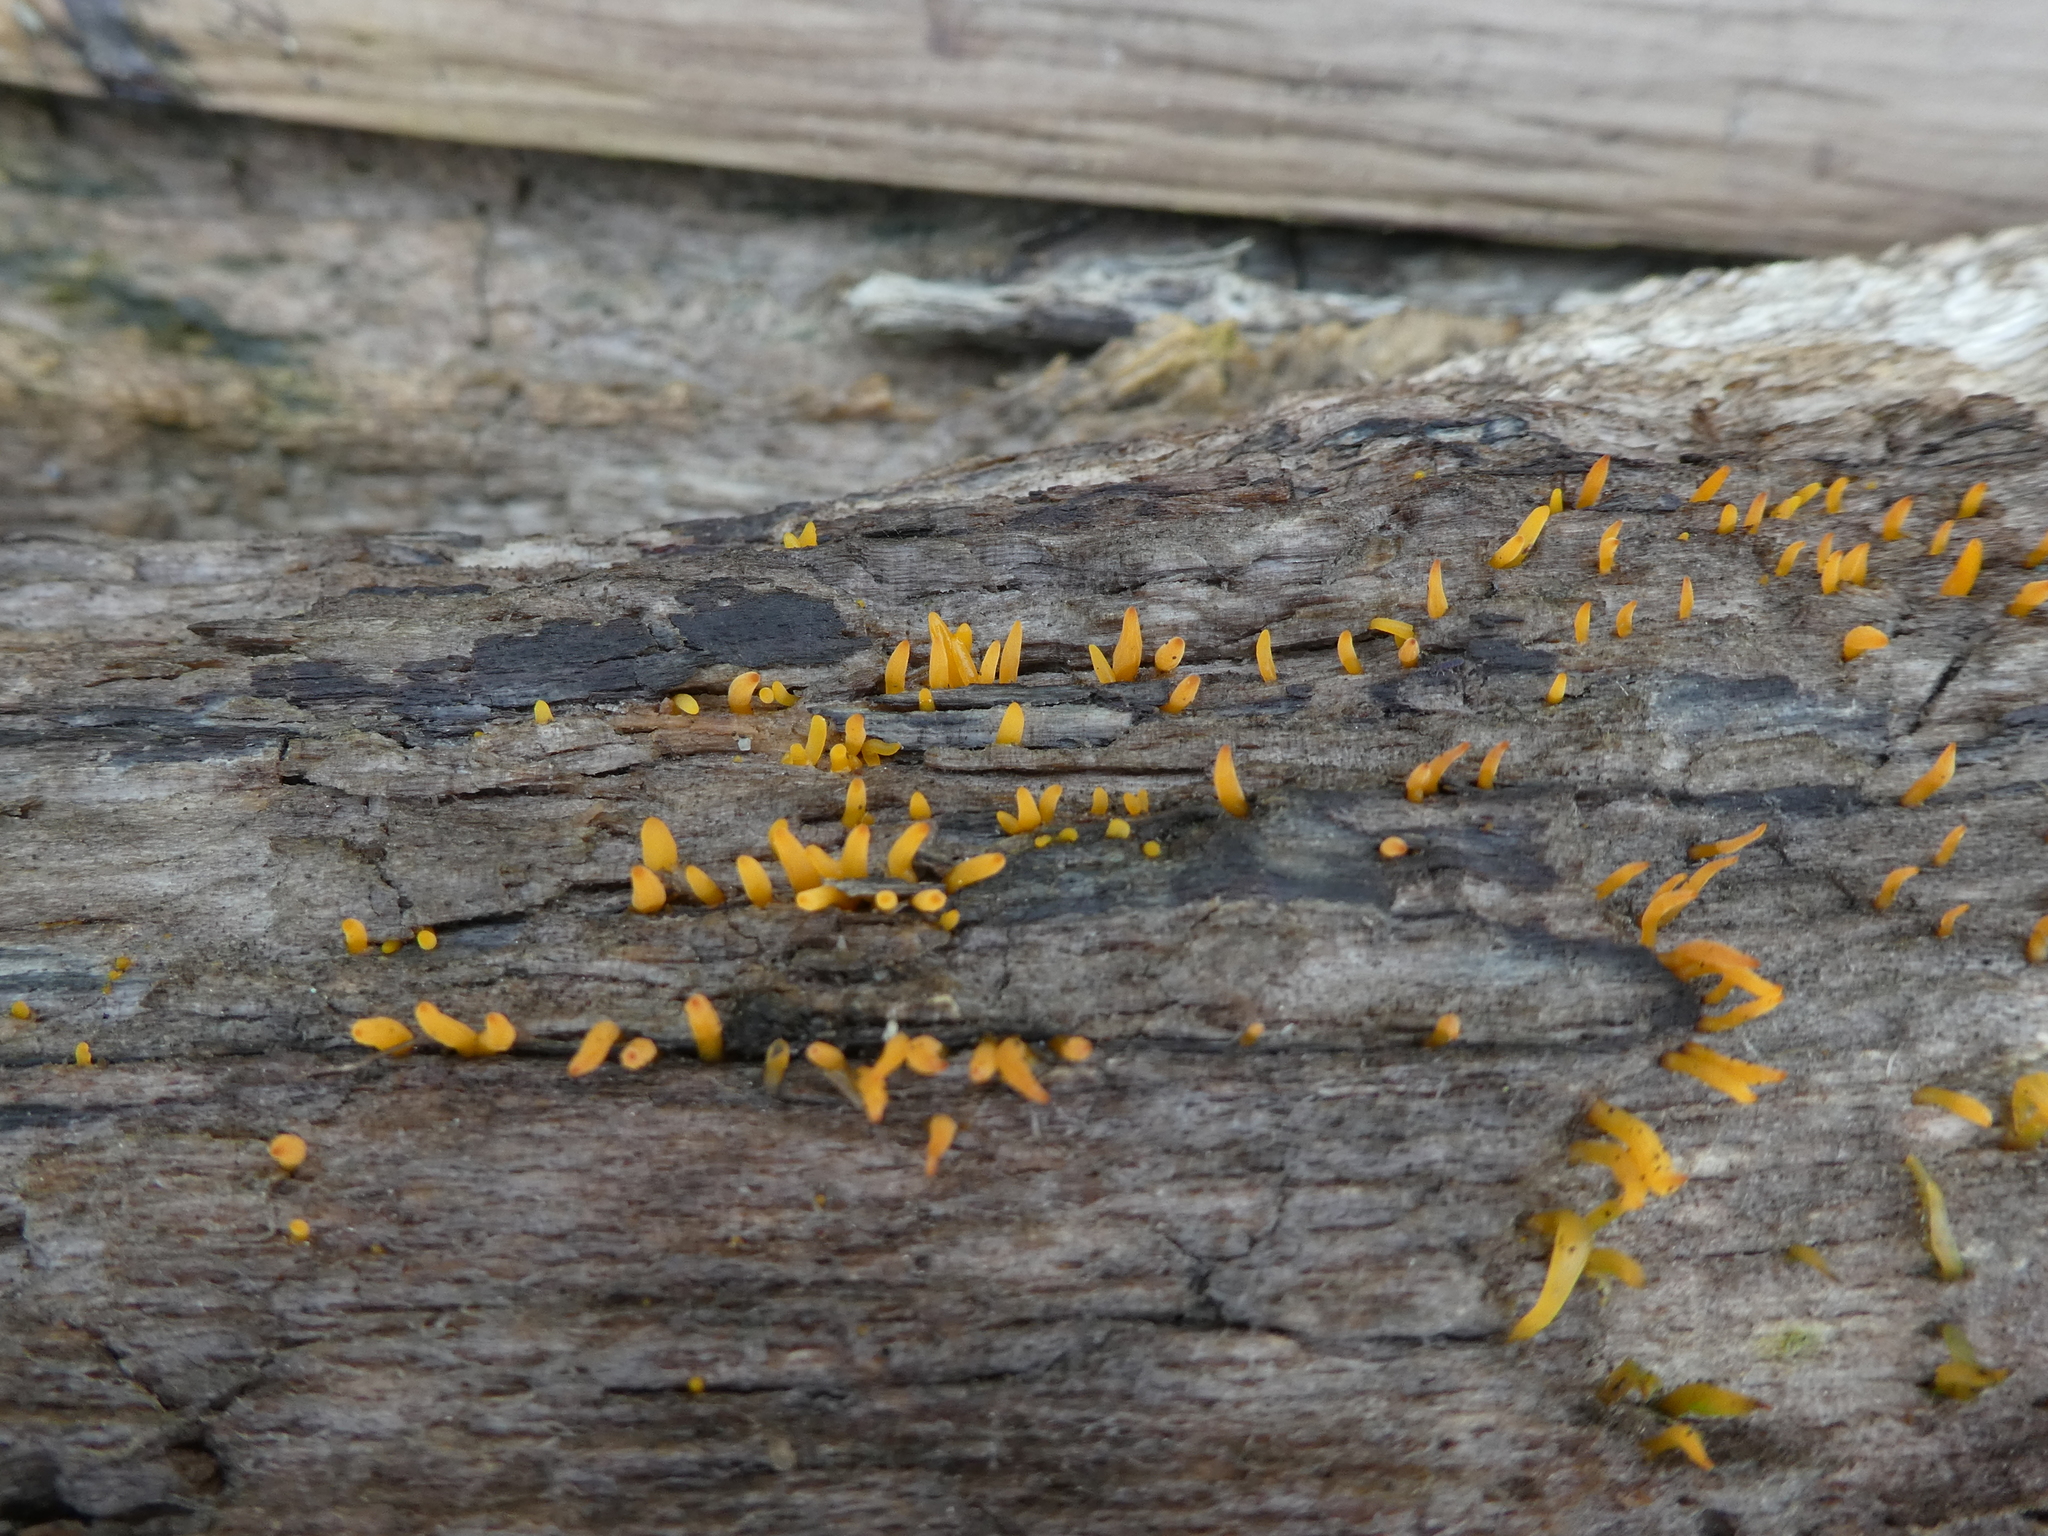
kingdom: Fungi
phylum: Basidiomycota
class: Dacrymycetes
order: Dacrymycetales
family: Dacrymycetaceae
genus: Calocera
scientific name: Calocera cornea
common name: Small stagshorn
